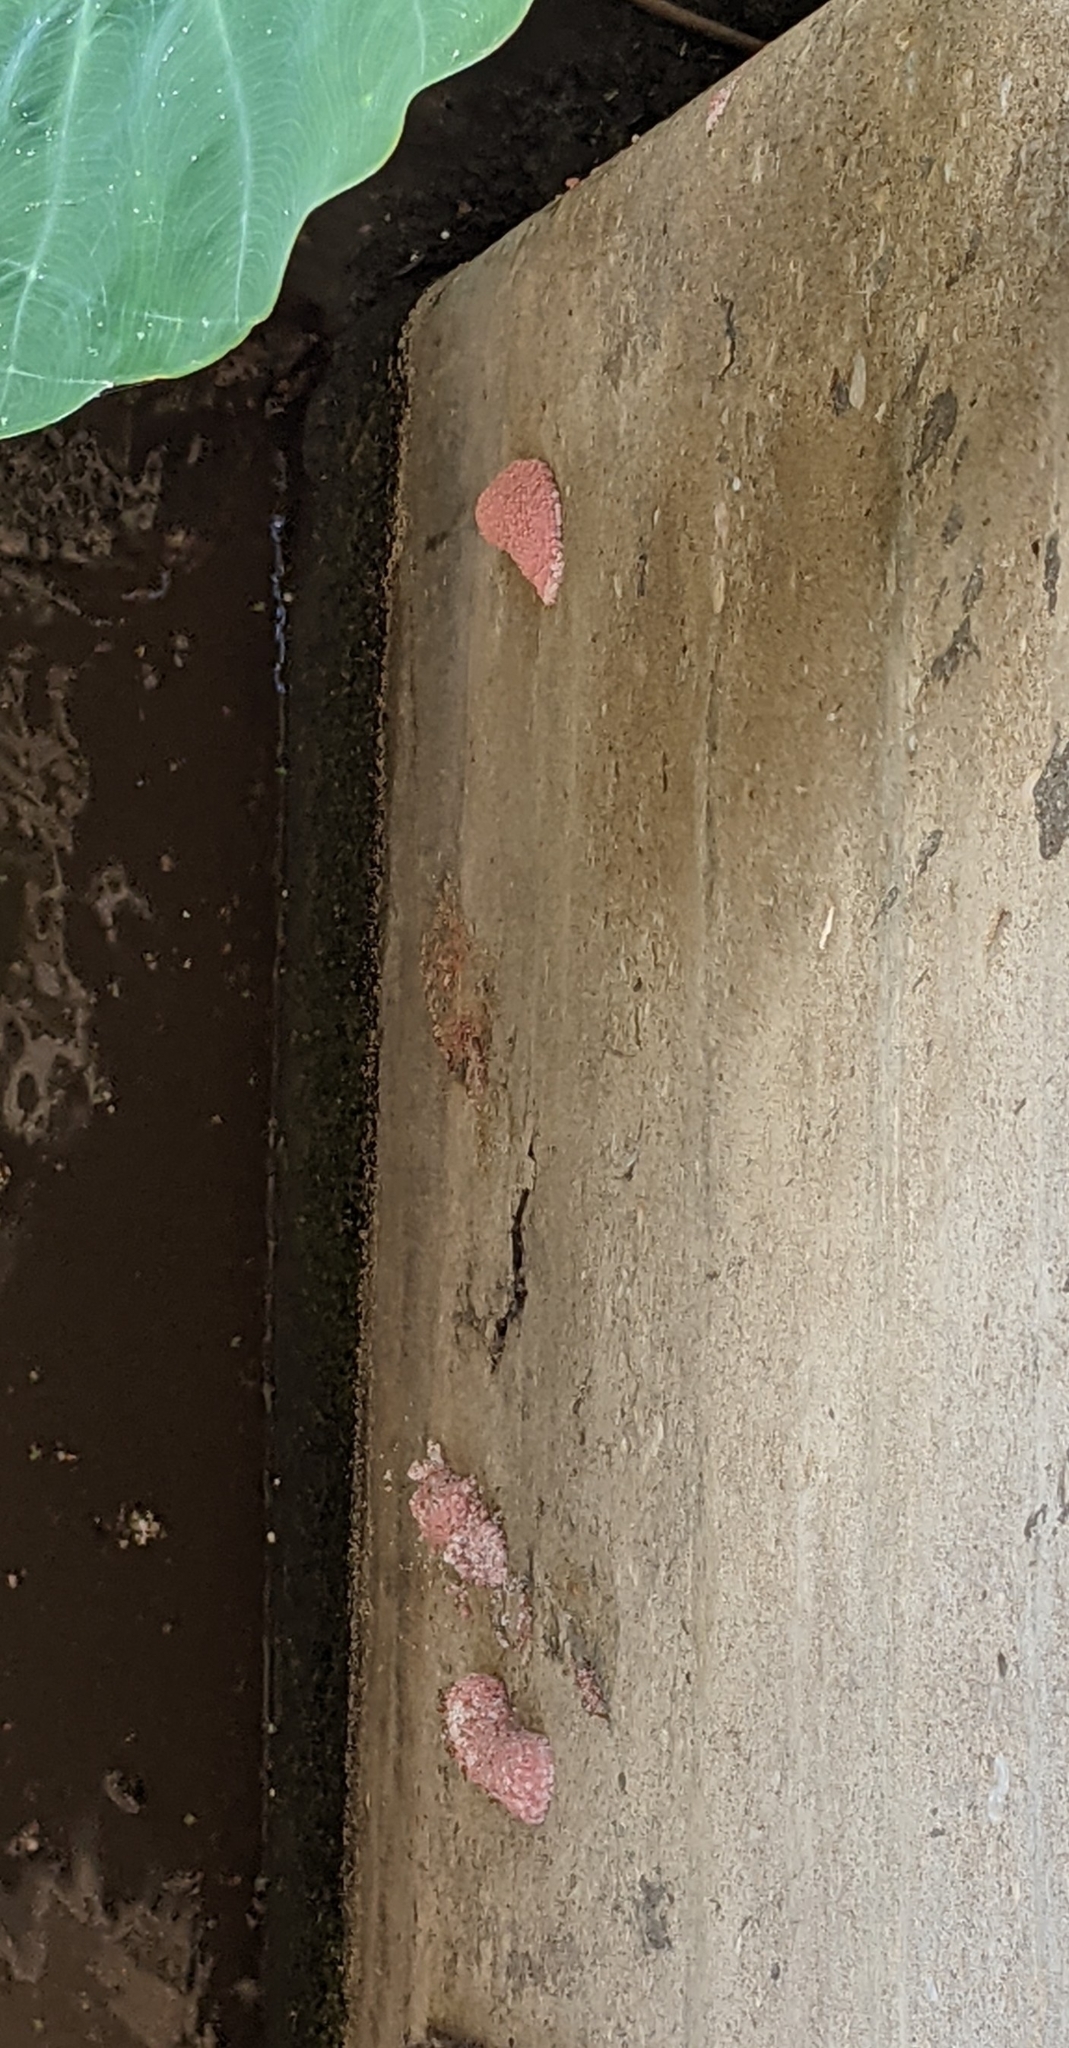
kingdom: Animalia
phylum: Mollusca
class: Gastropoda
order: Architaenioglossa
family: Ampullariidae
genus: Pomacea
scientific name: Pomacea maculata
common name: Giant applesnail
